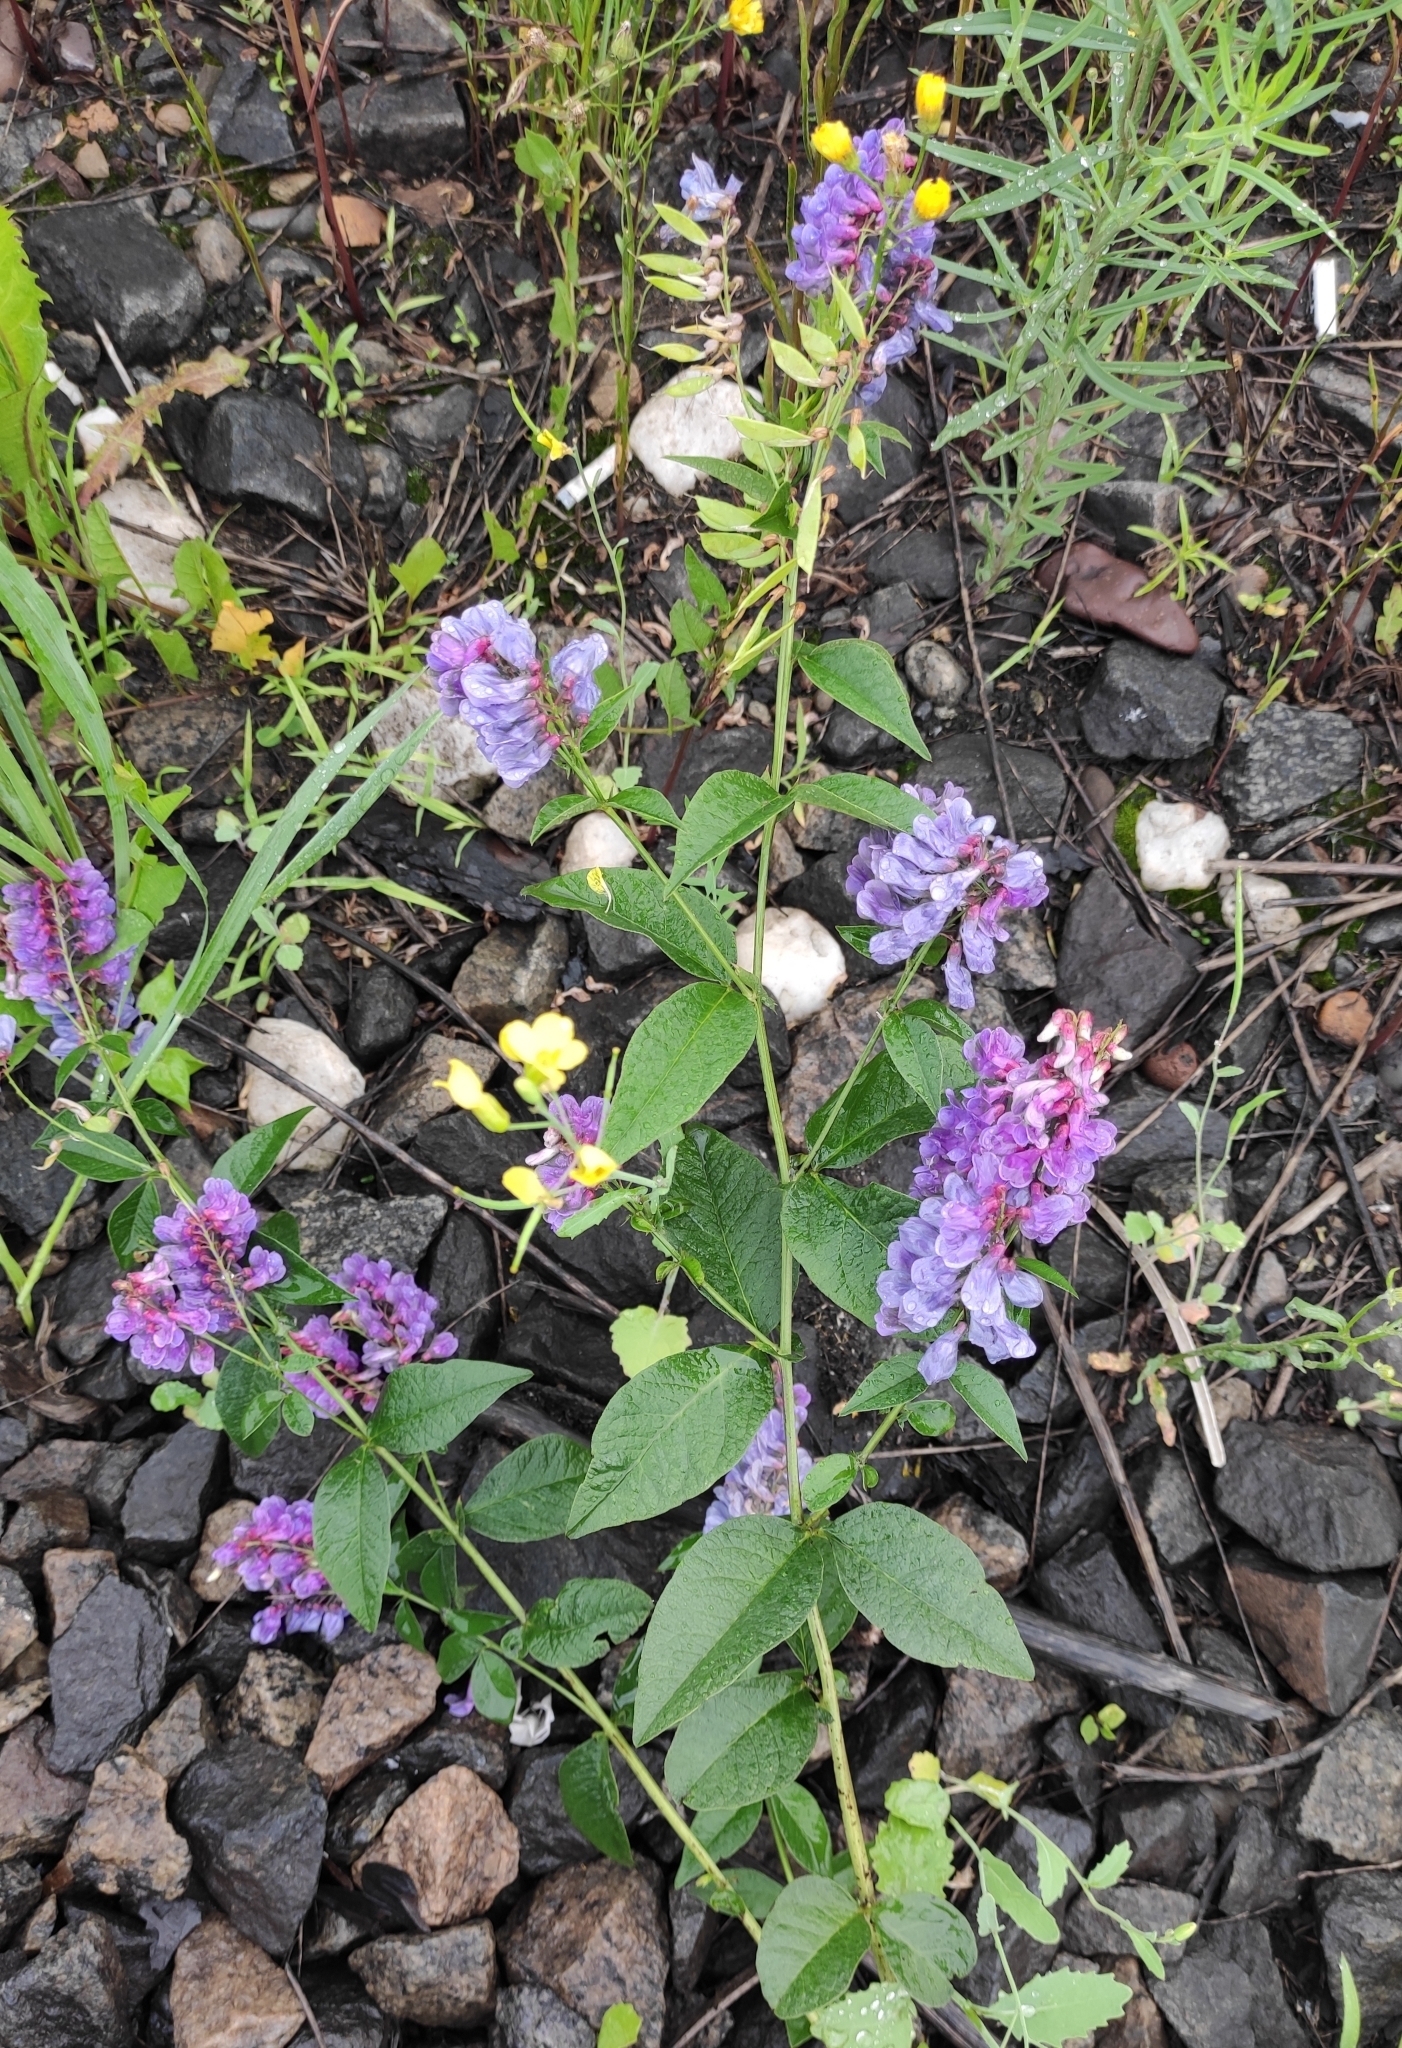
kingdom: Plantae
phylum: Tracheophyta
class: Magnoliopsida
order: Fabales
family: Fabaceae
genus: Vicia
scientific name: Vicia unijuga
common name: Two-leaf vetch
